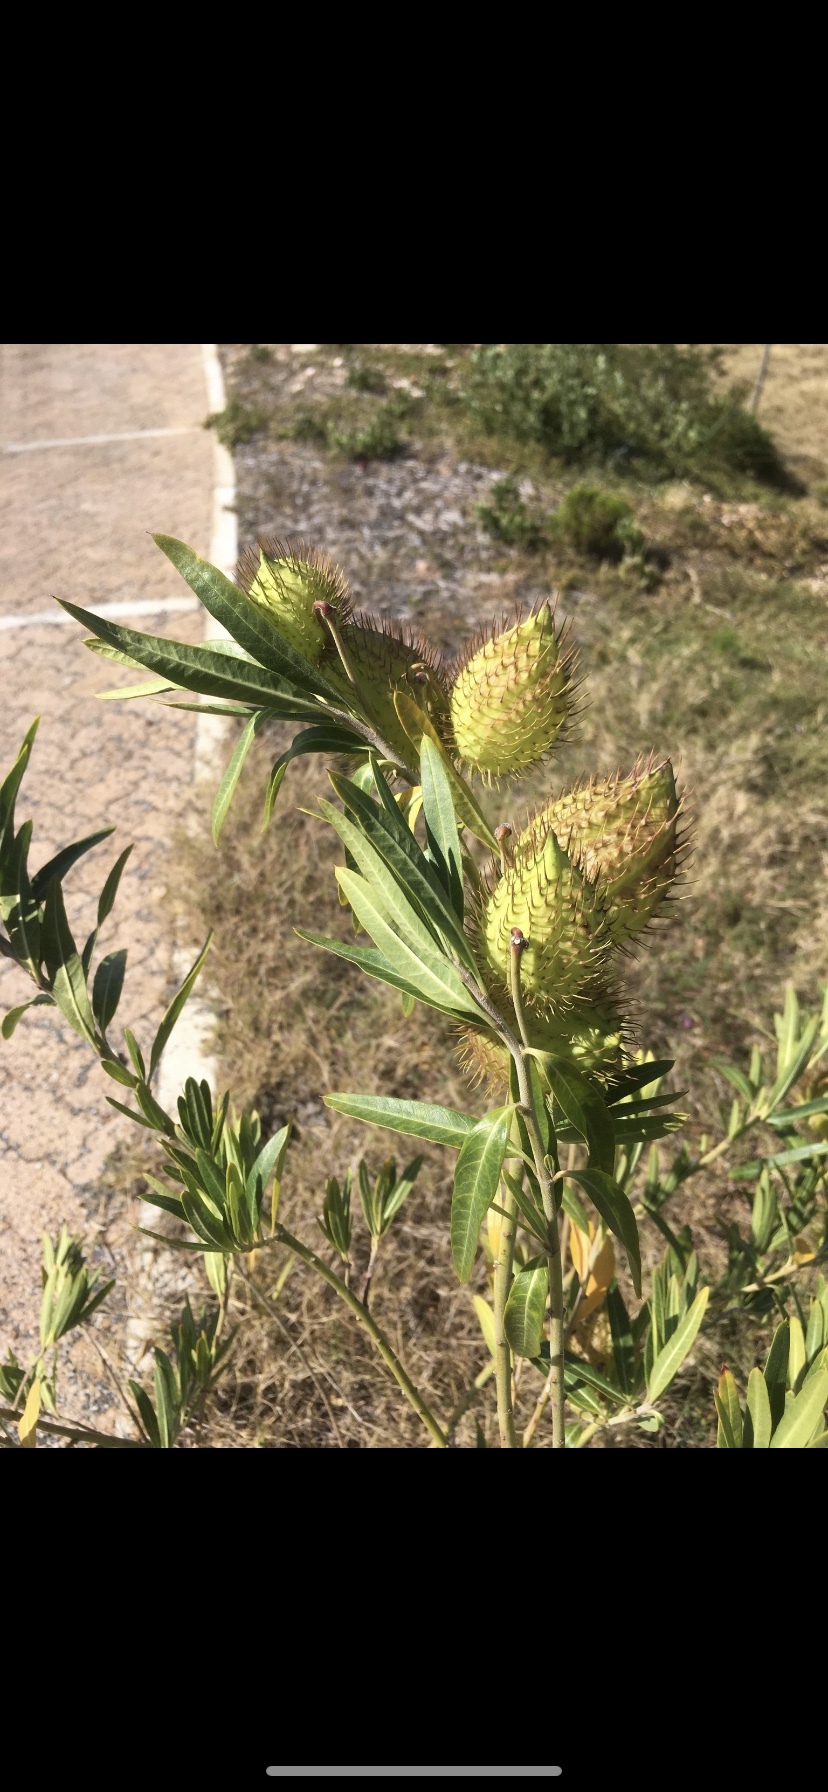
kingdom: Plantae
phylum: Tracheophyta
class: Magnoliopsida
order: Gentianales
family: Apocynaceae
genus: Gomphocarpus
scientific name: Gomphocarpus fruticosus
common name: Milkweed
